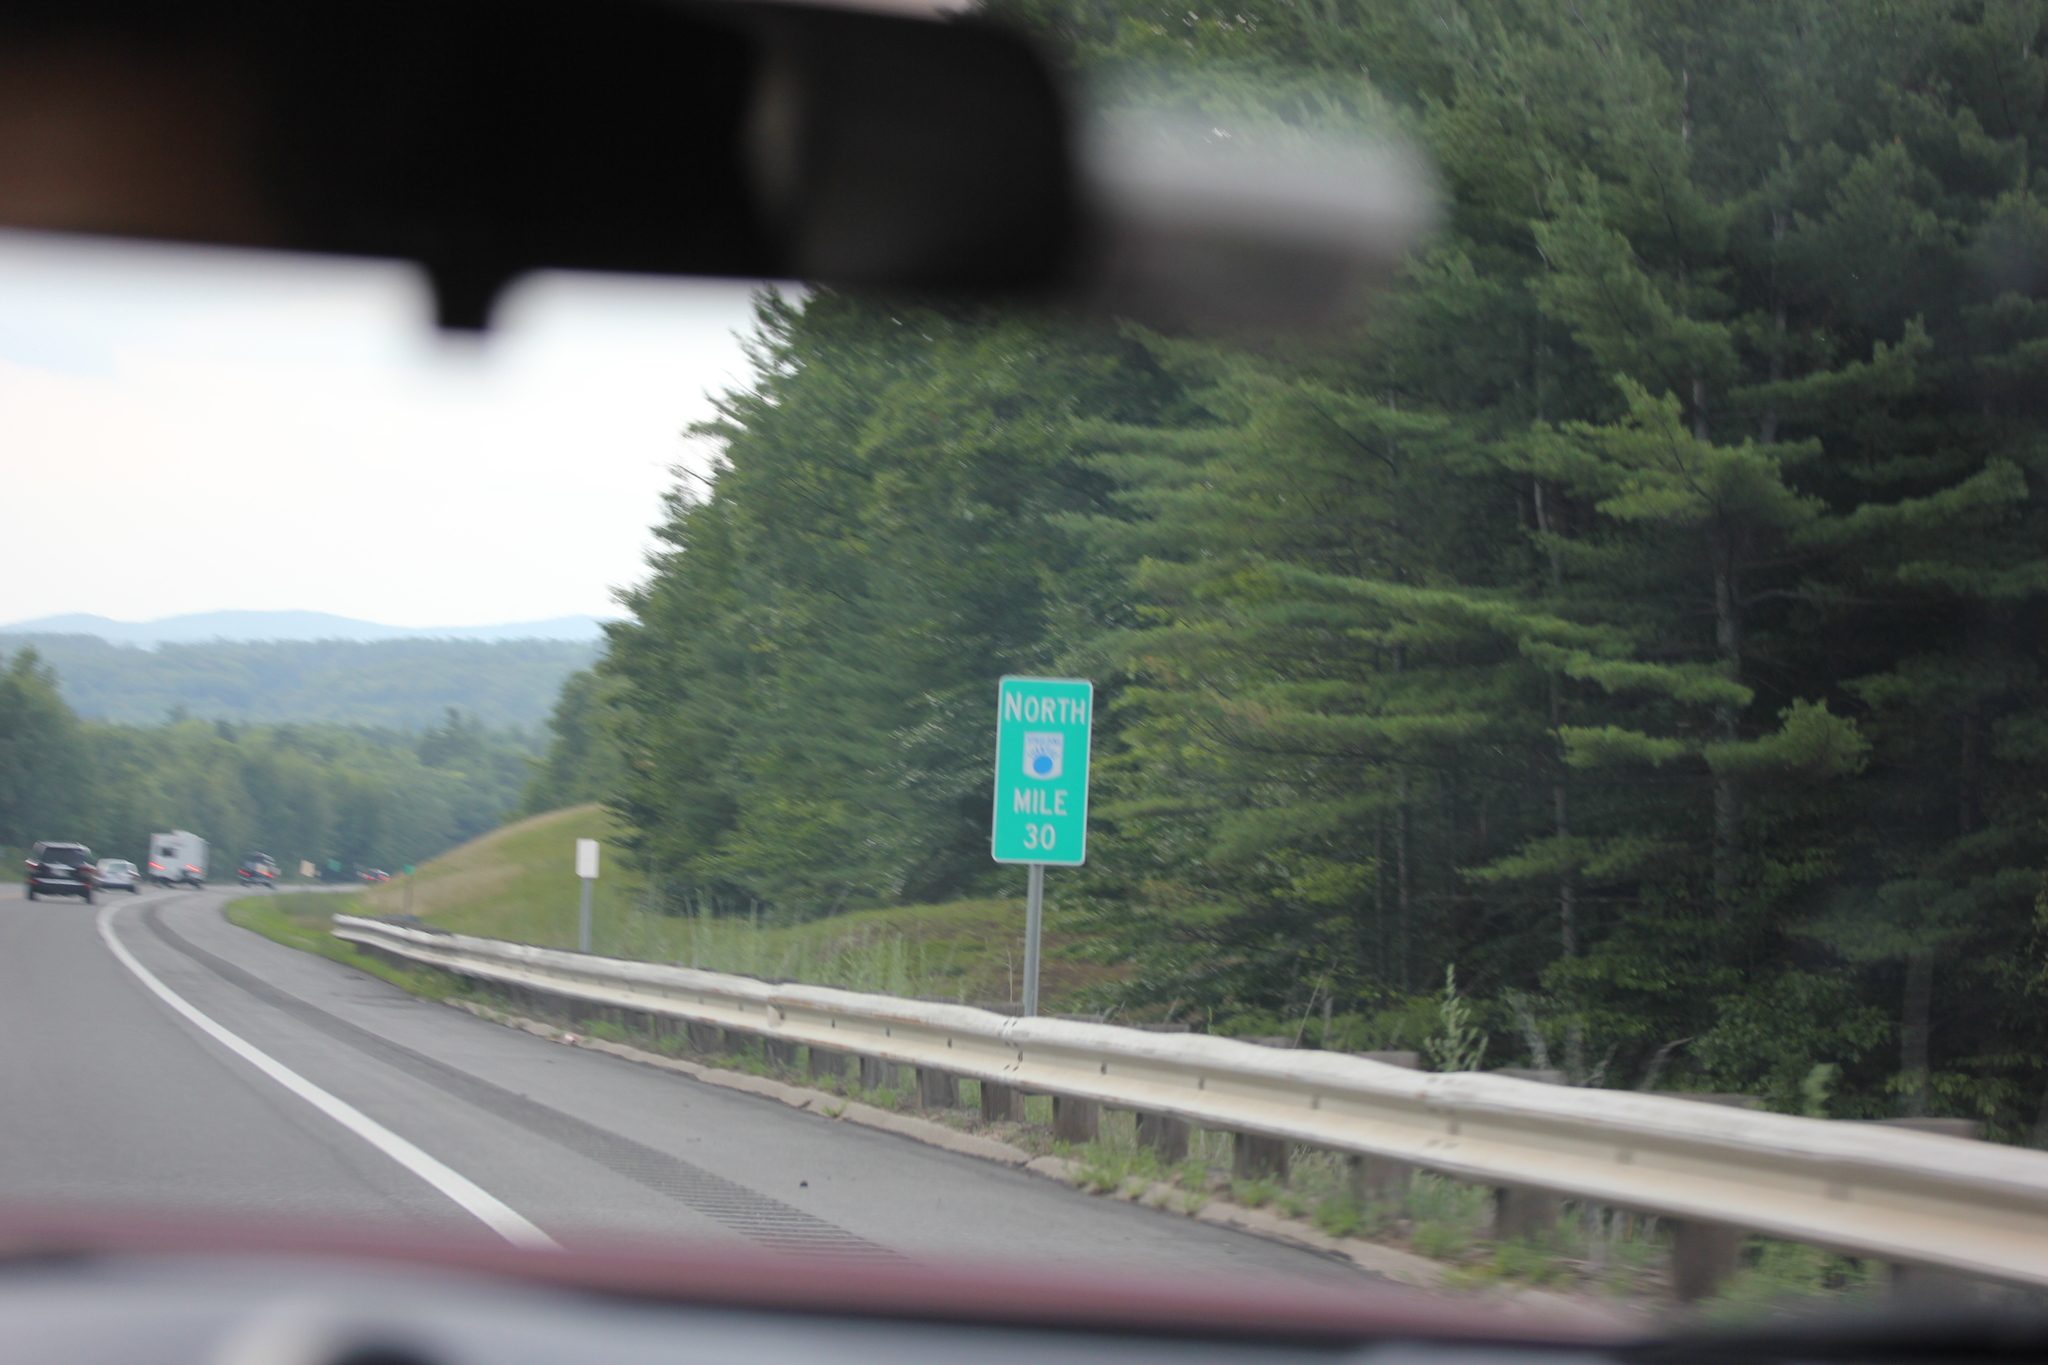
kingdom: Plantae
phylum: Tracheophyta
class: Pinopsida
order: Pinales
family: Pinaceae
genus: Pinus
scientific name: Pinus strobus
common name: Weymouth pine
